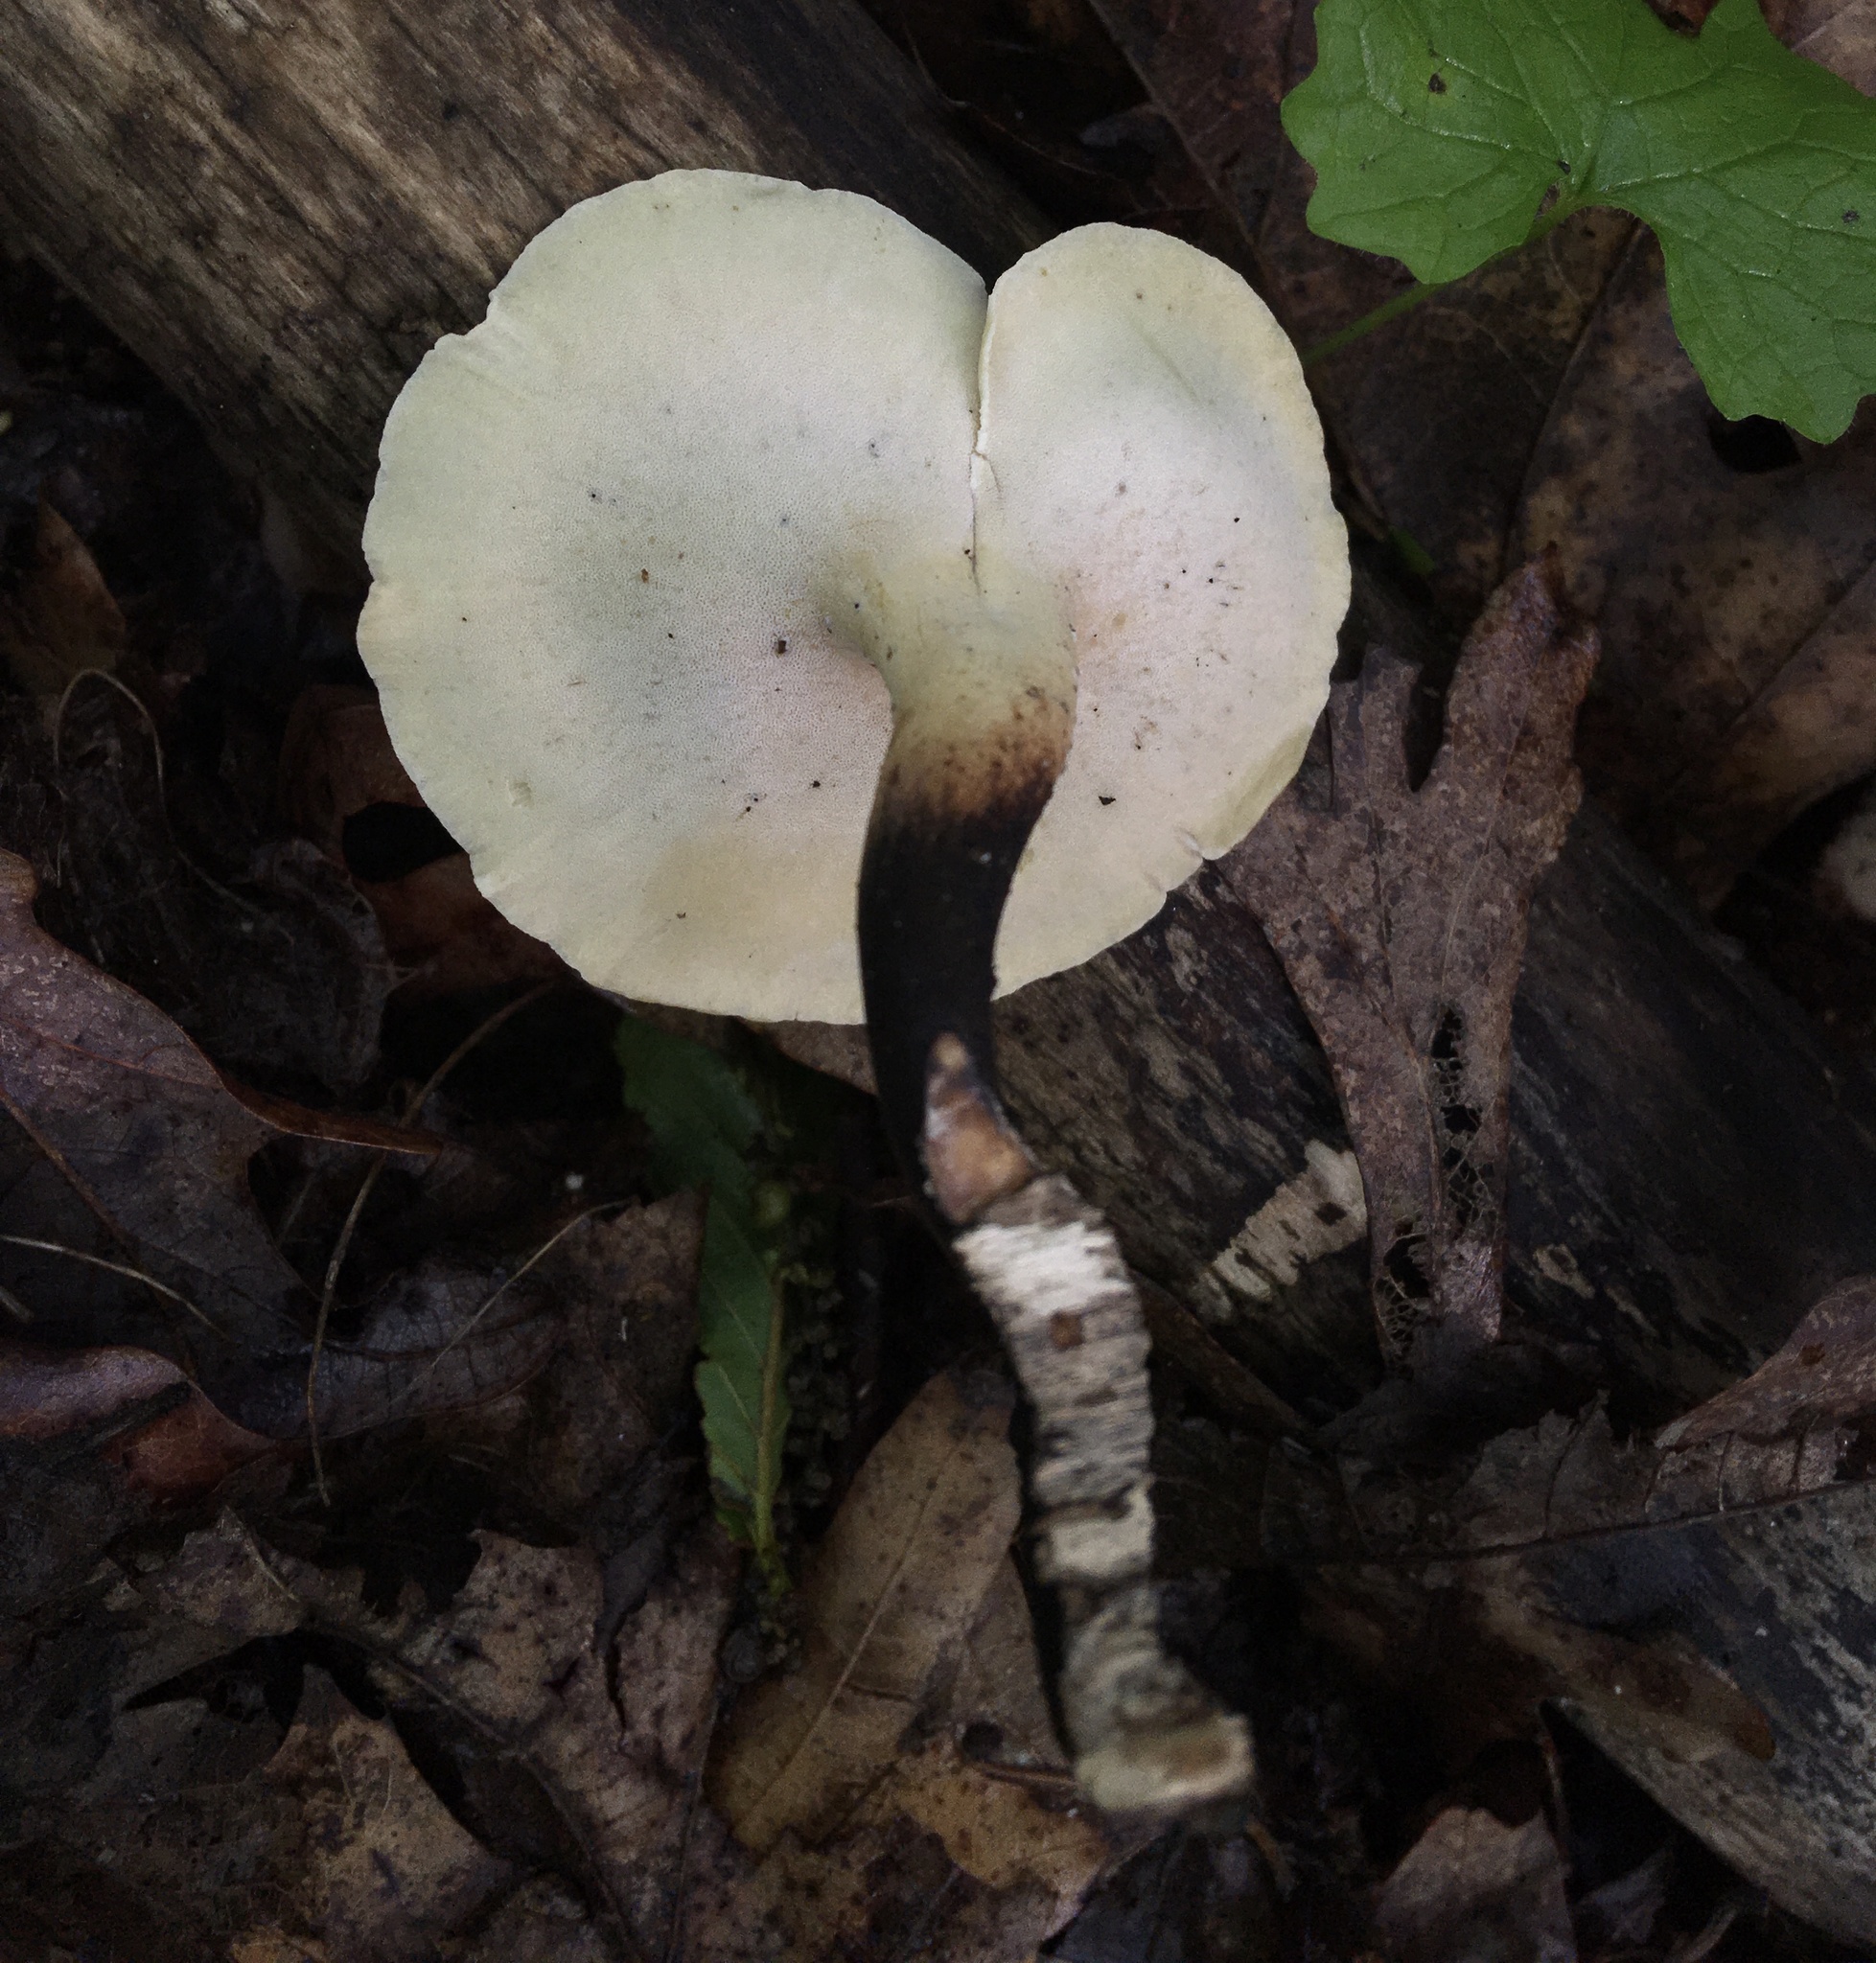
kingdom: Fungi
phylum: Basidiomycota
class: Agaricomycetes
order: Polyporales
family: Polyporaceae
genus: Cerioporus
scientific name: Cerioporus leptocephalus
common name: Blackfoot polypore
